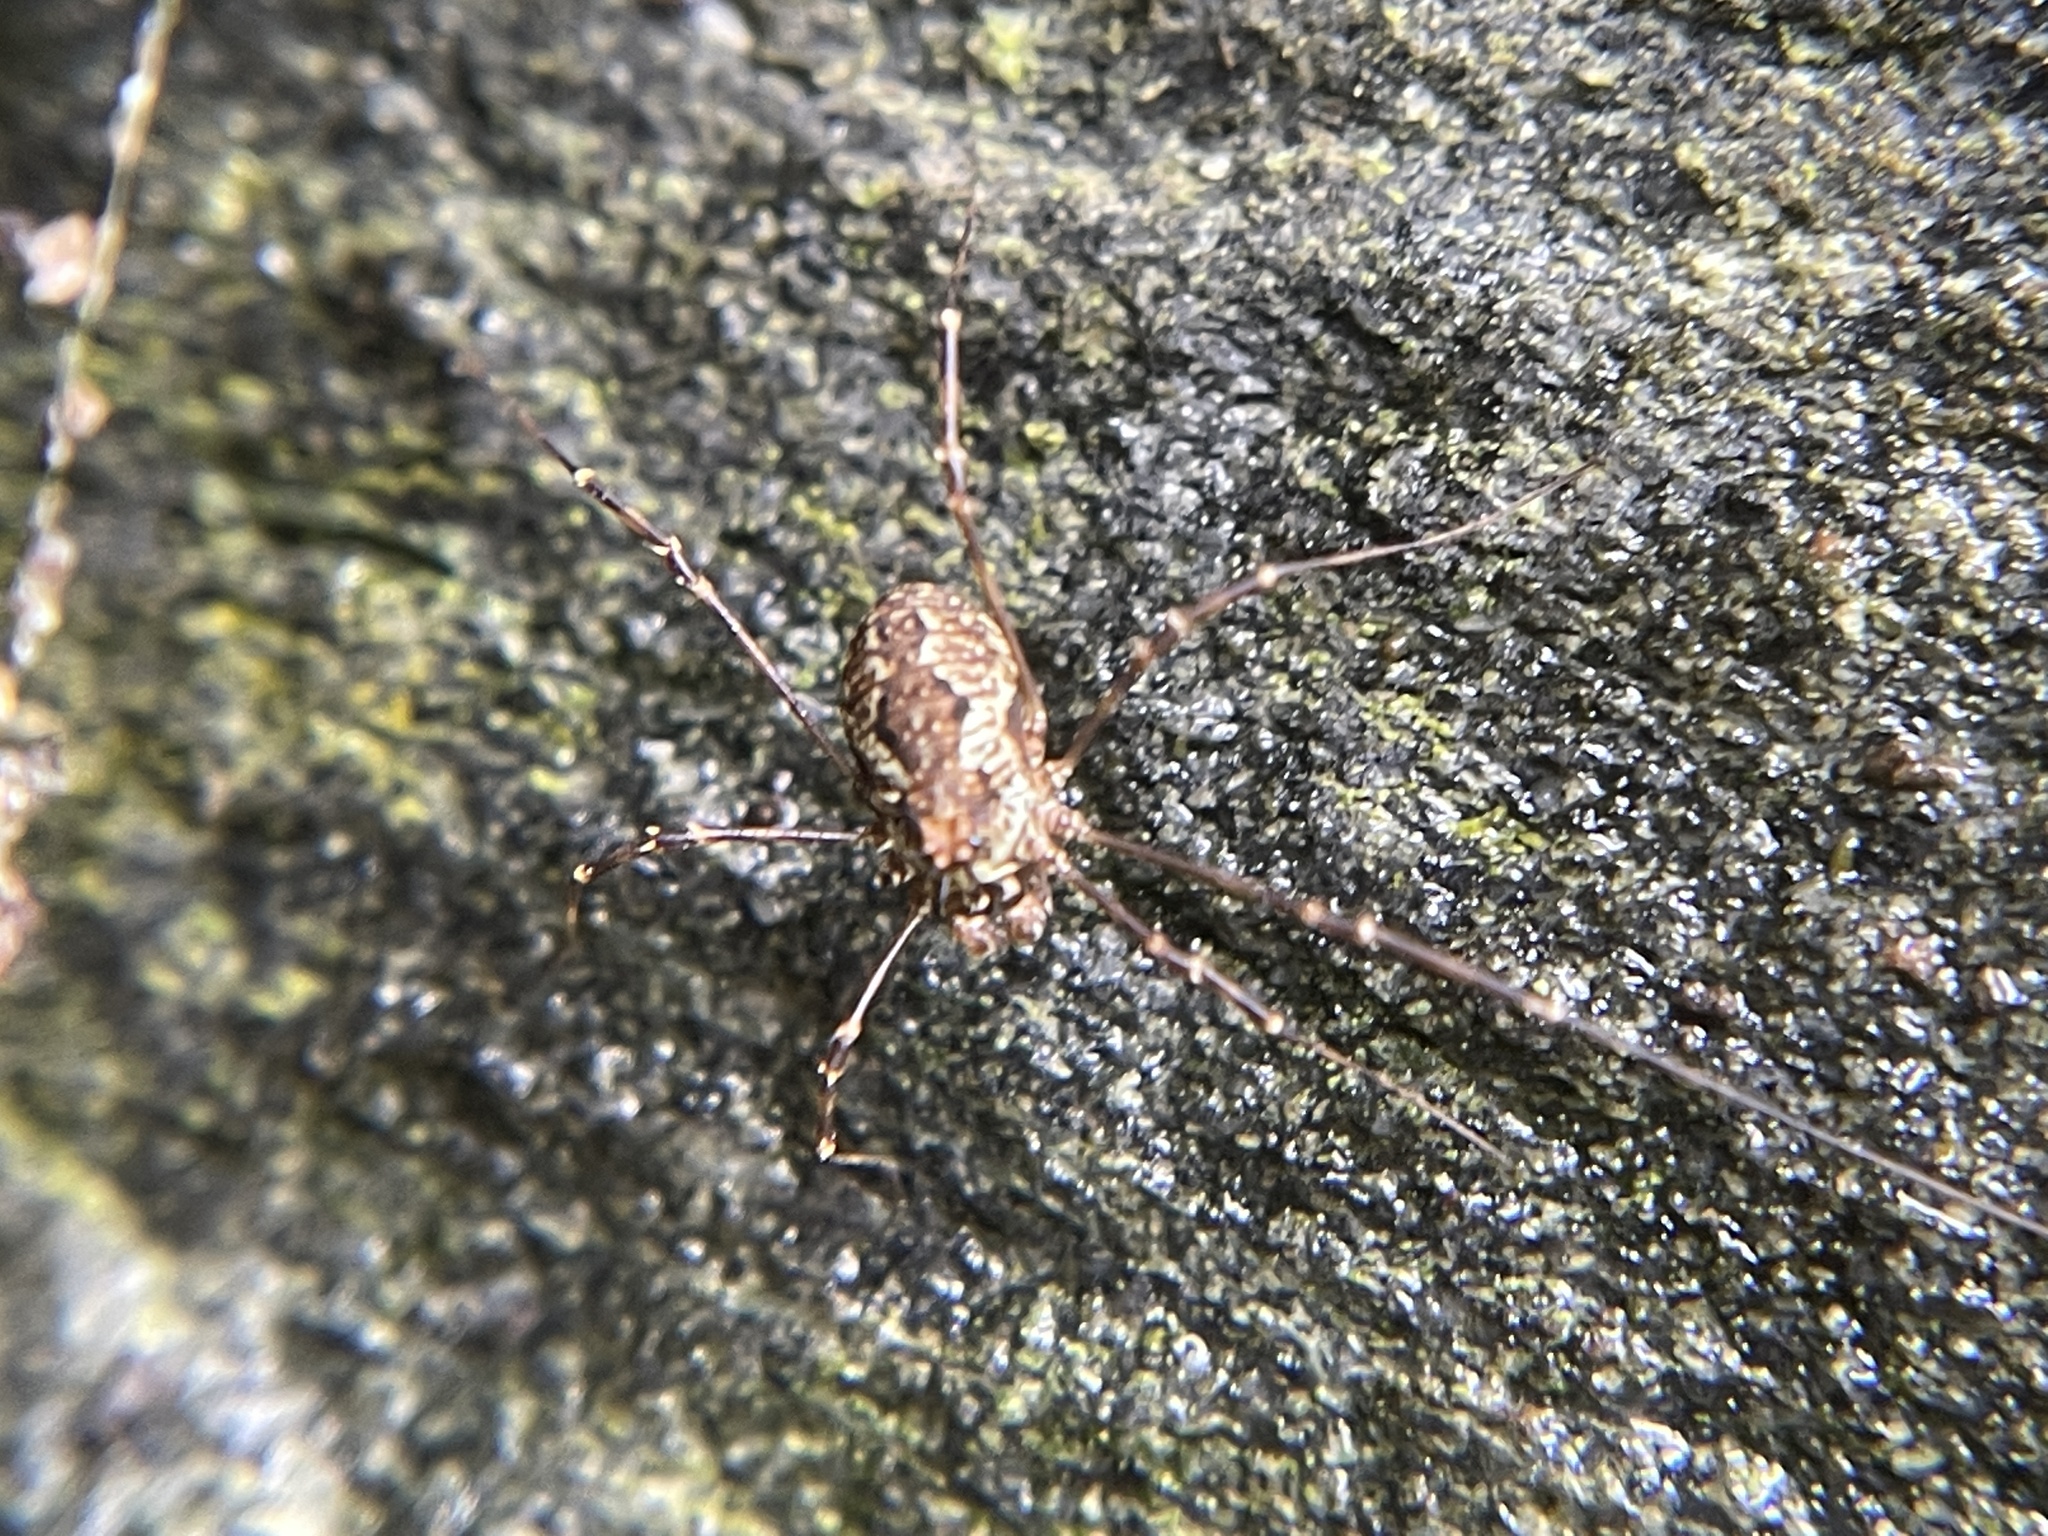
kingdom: Animalia
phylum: Arthropoda
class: Arachnida
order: Opiliones
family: Phalangiidae
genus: Megabunus
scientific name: Megabunus diadema
